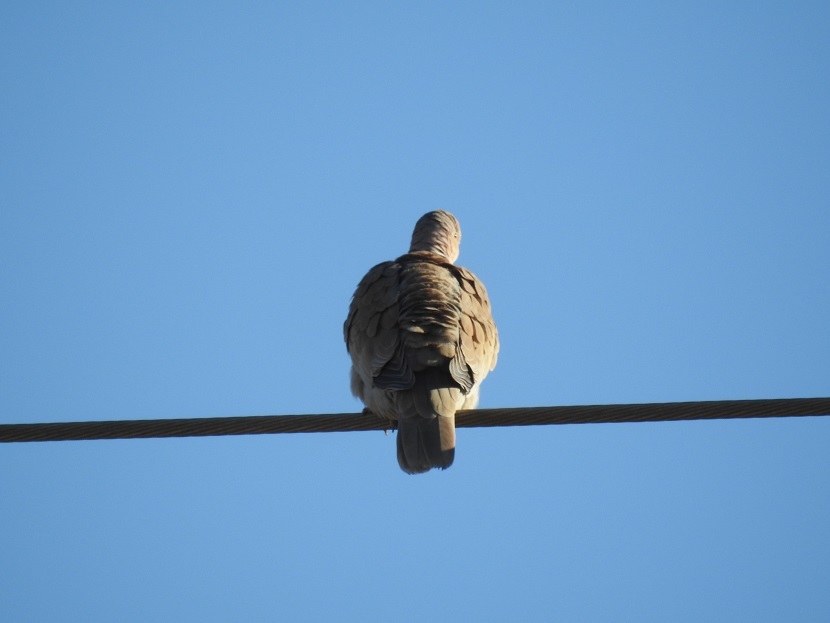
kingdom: Animalia
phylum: Chordata
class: Aves
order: Columbiformes
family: Columbidae
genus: Streptopelia
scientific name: Streptopelia decaocto
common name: Eurasian collared dove
